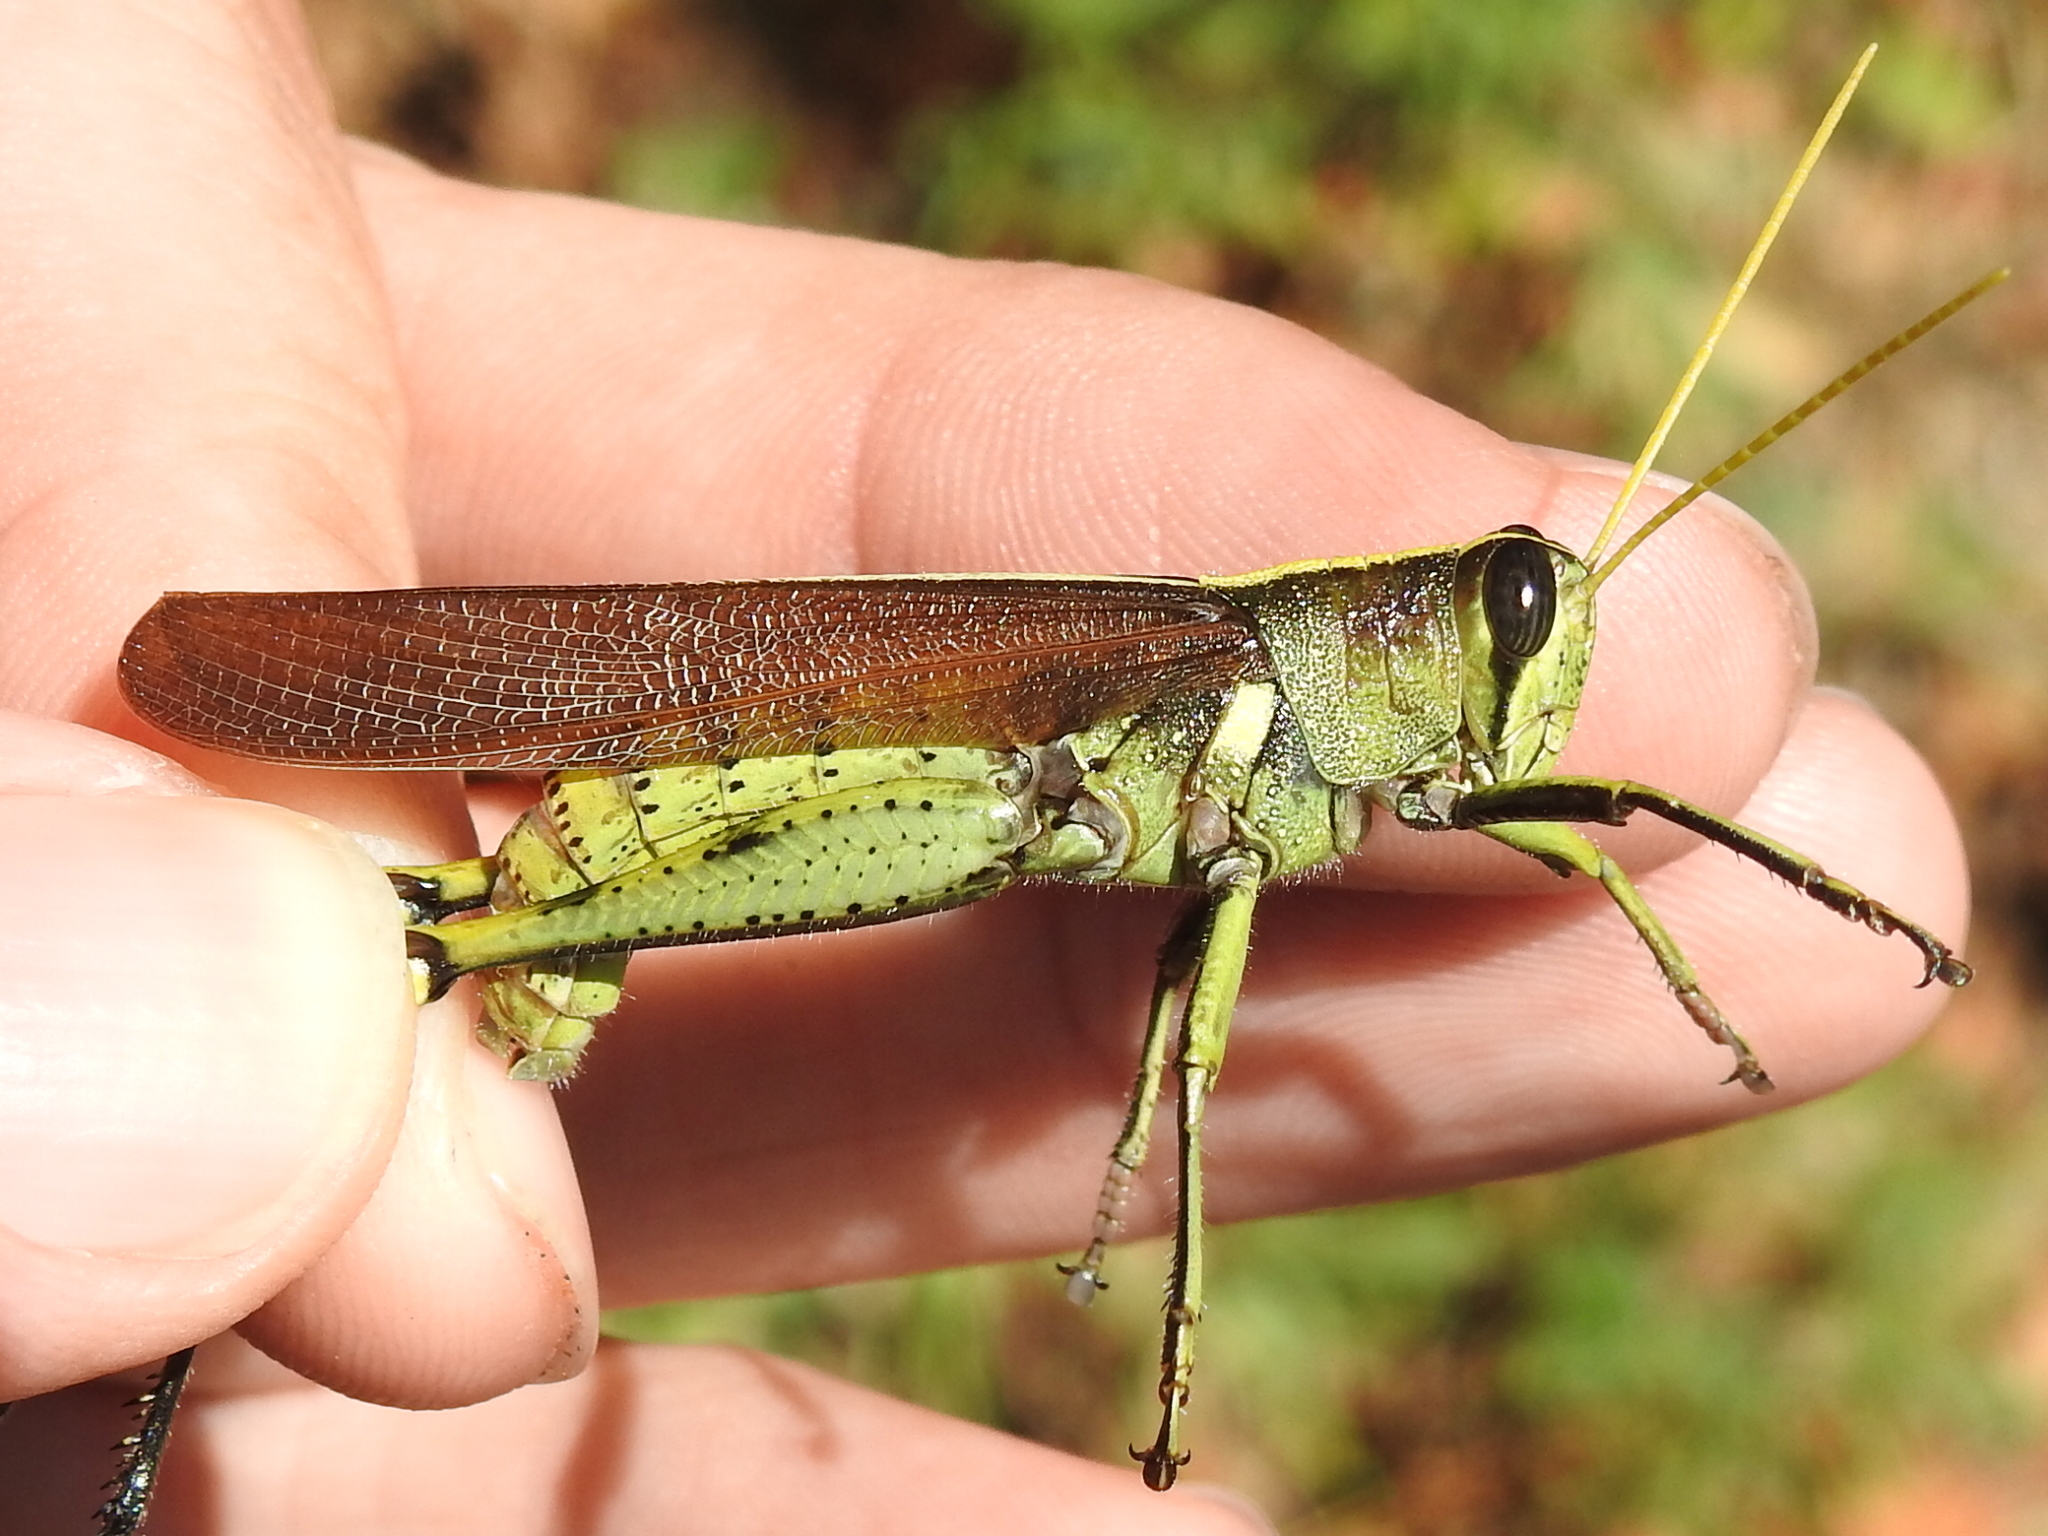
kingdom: Animalia
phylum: Arthropoda
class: Insecta
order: Orthoptera
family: Acrididae
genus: Schistocerca
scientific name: Schistocerca obscura
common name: Obscure bird grasshopper
